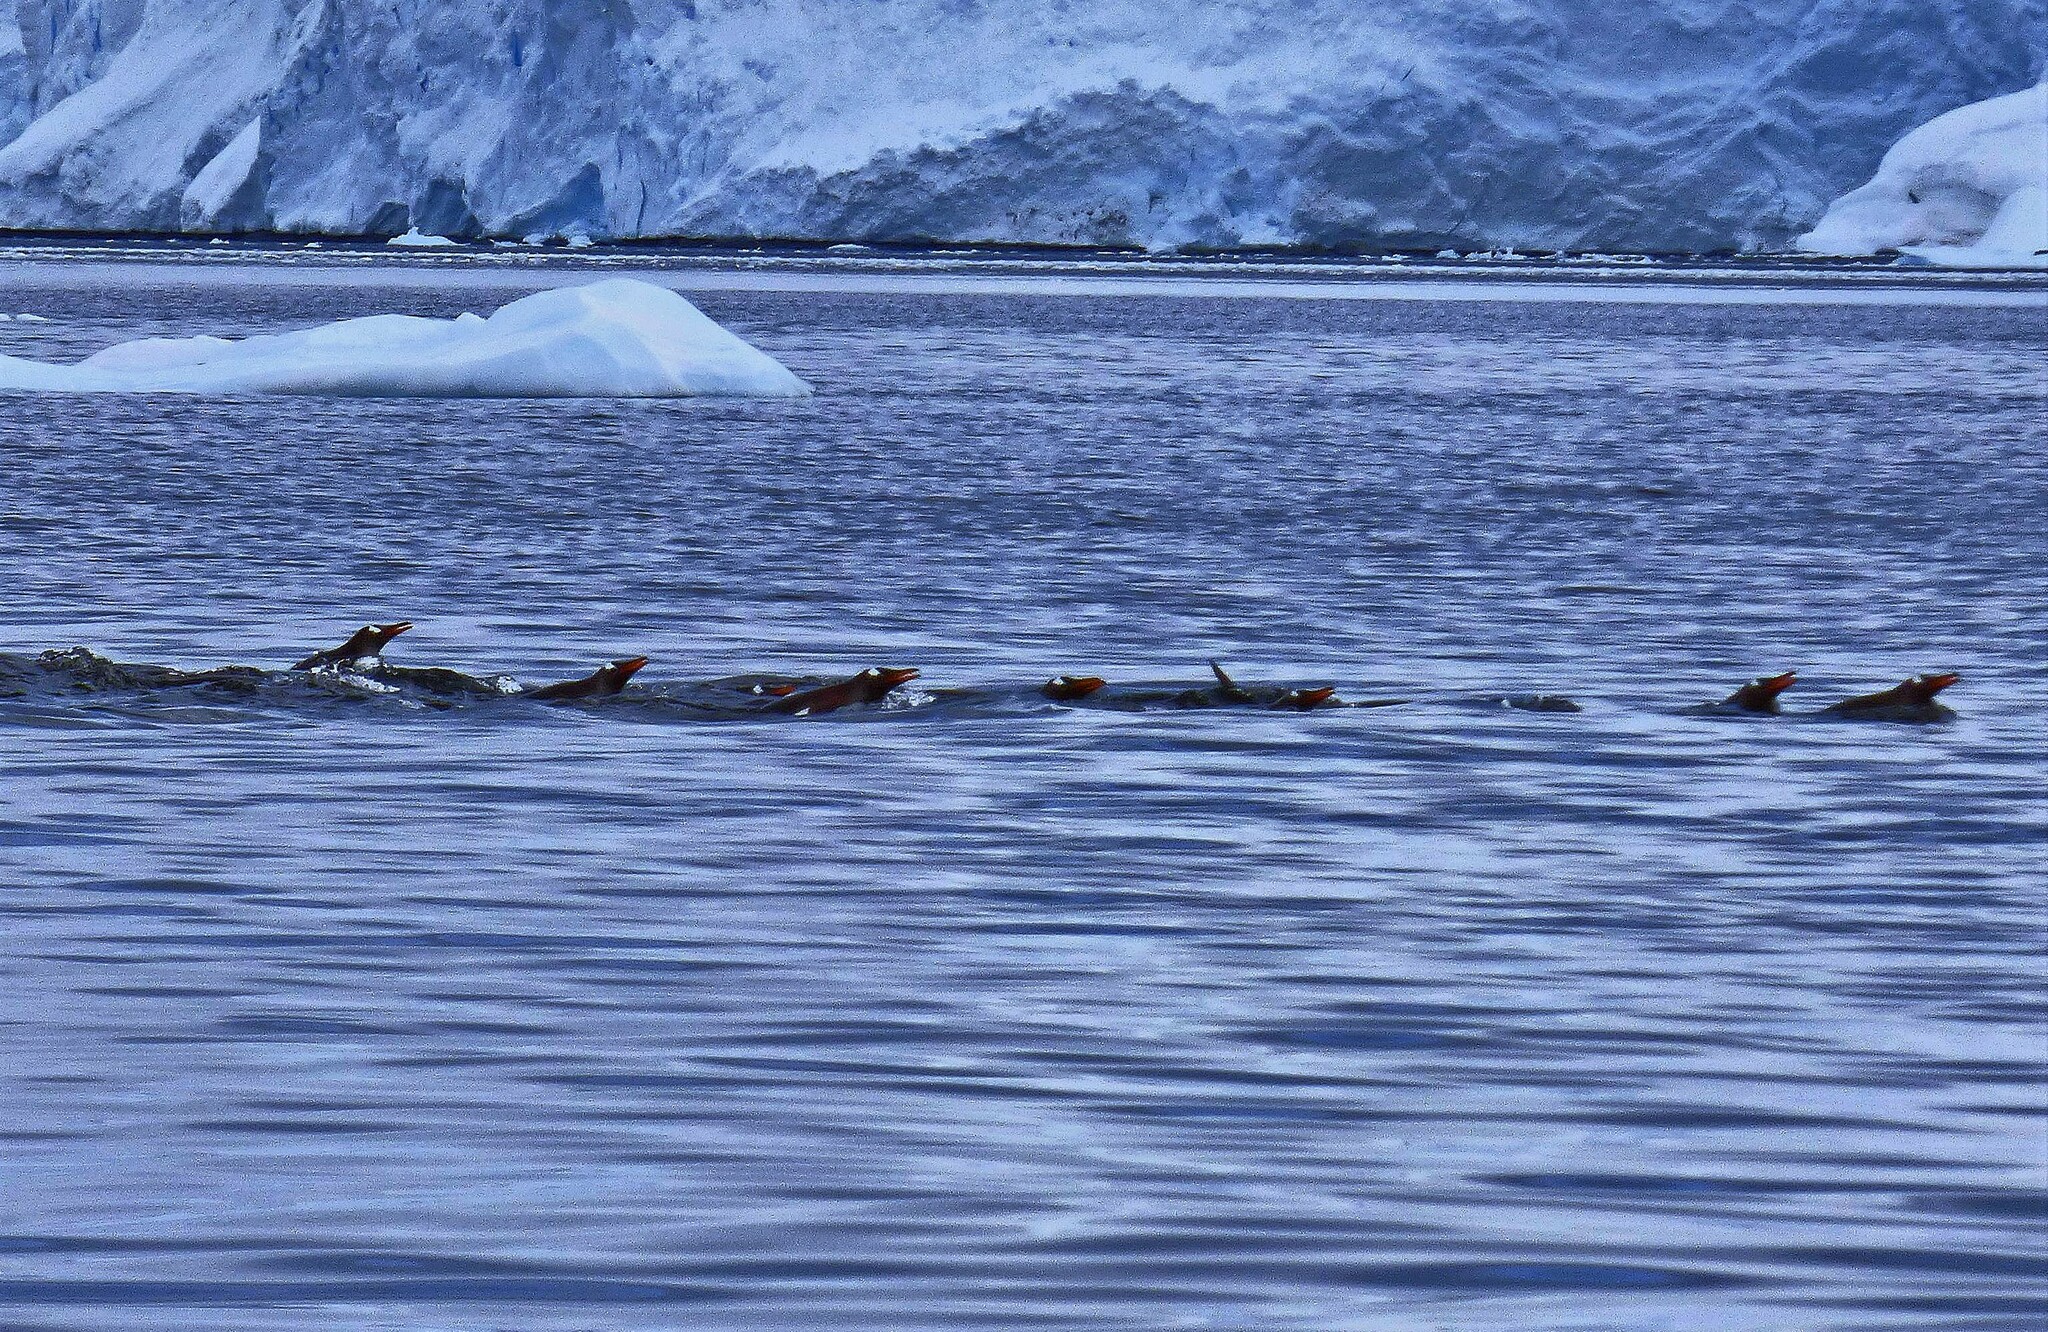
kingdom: Animalia
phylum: Chordata
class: Aves
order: Sphenisciformes
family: Spheniscidae
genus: Pygoscelis
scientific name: Pygoscelis papua
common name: Gentoo penguin
